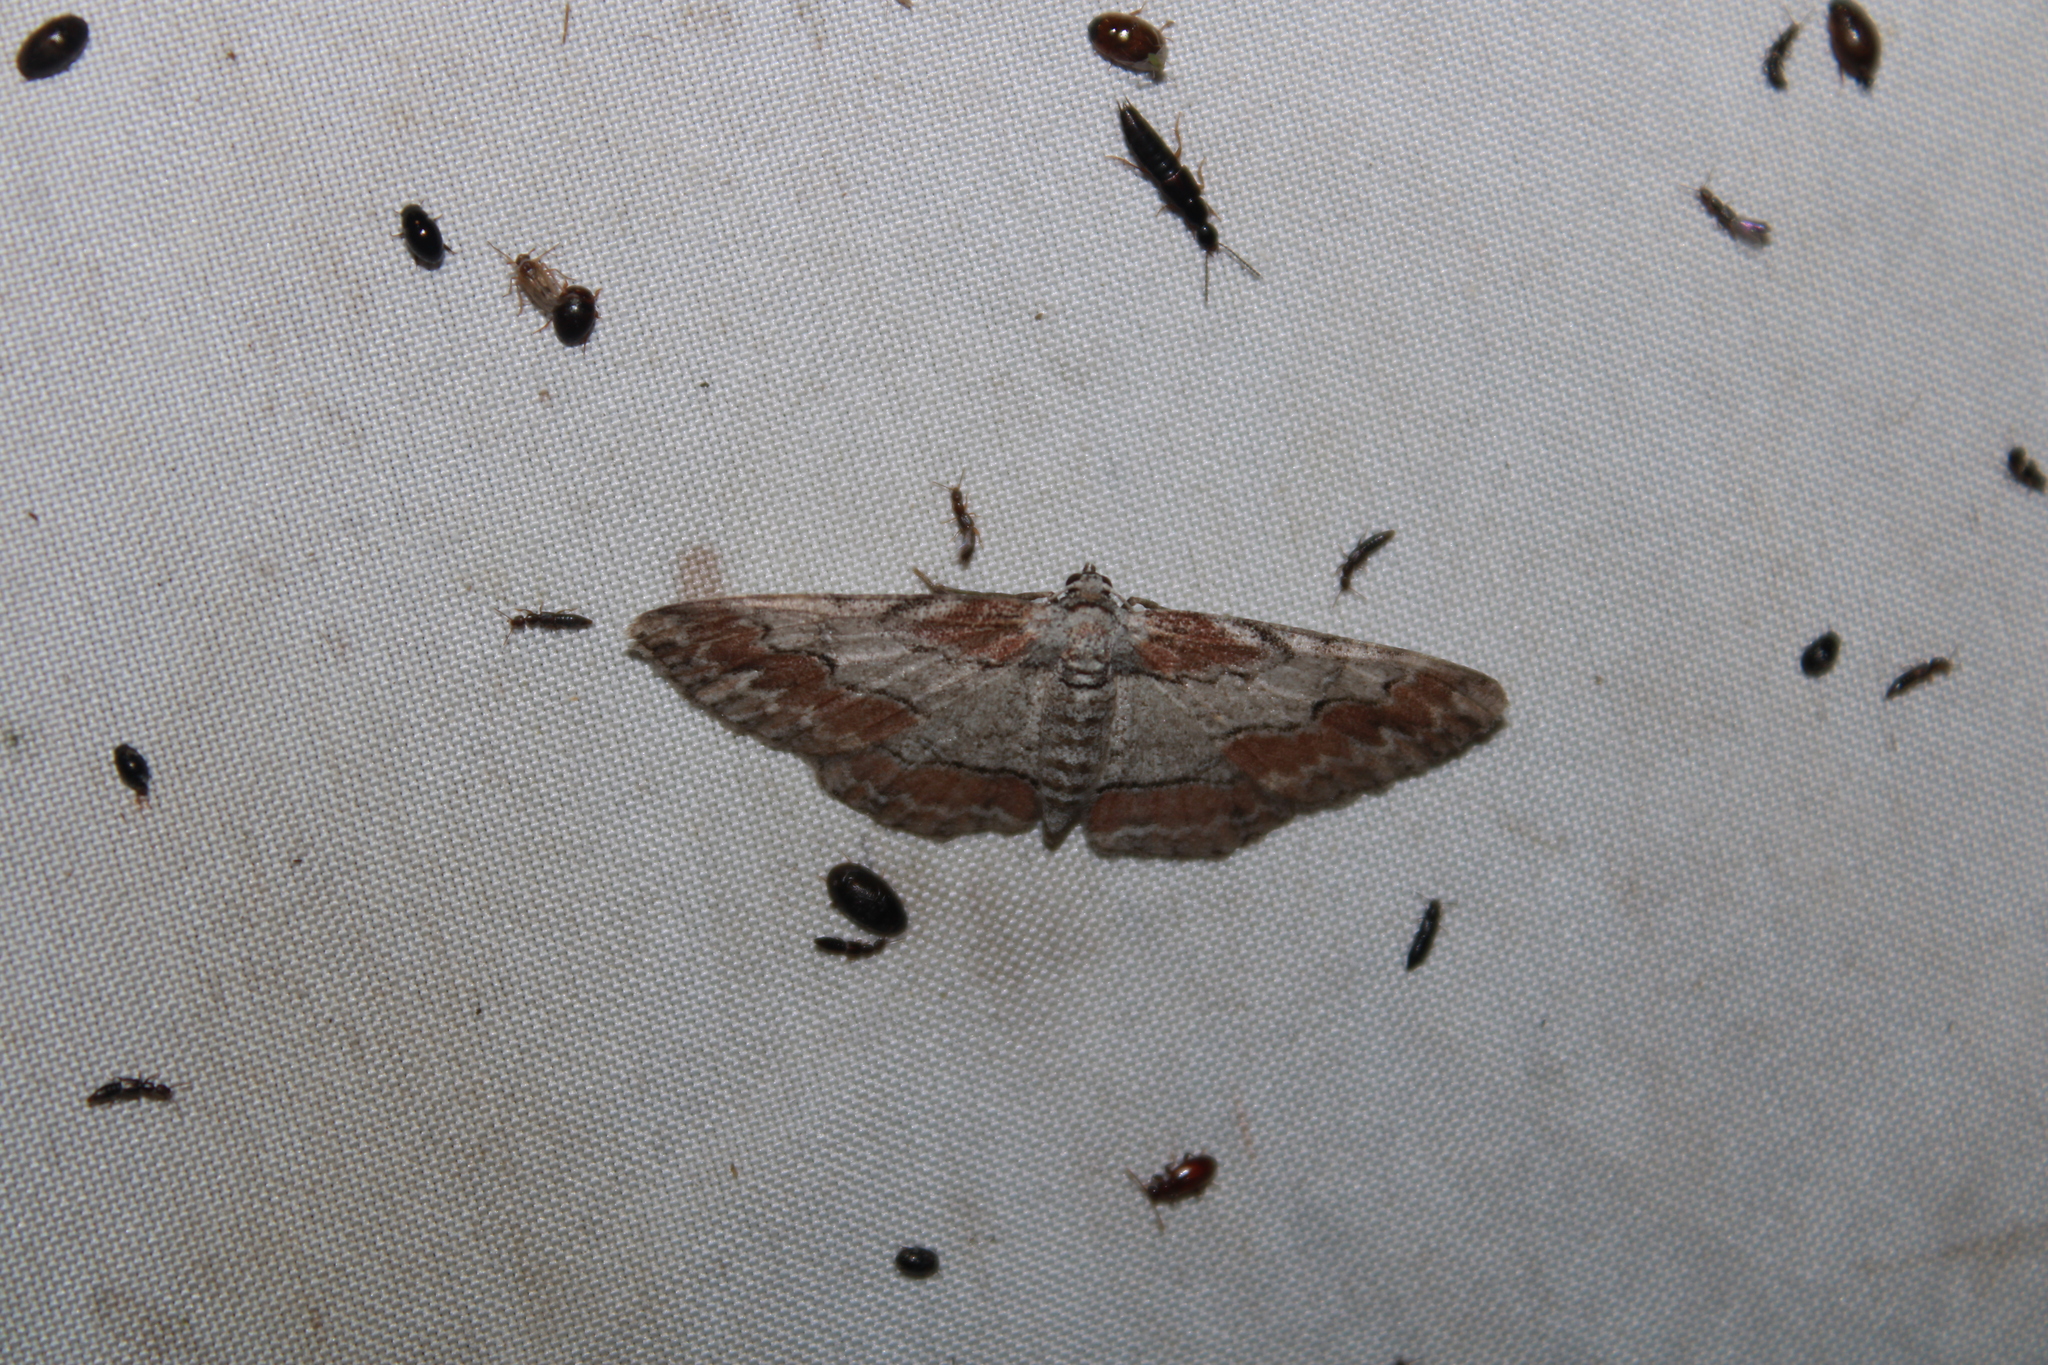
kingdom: Animalia
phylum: Arthropoda
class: Insecta
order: Lepidoptera
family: Geometridae
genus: Iridopsis
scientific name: Iridopsis vellivolata
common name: Large purplish gray
